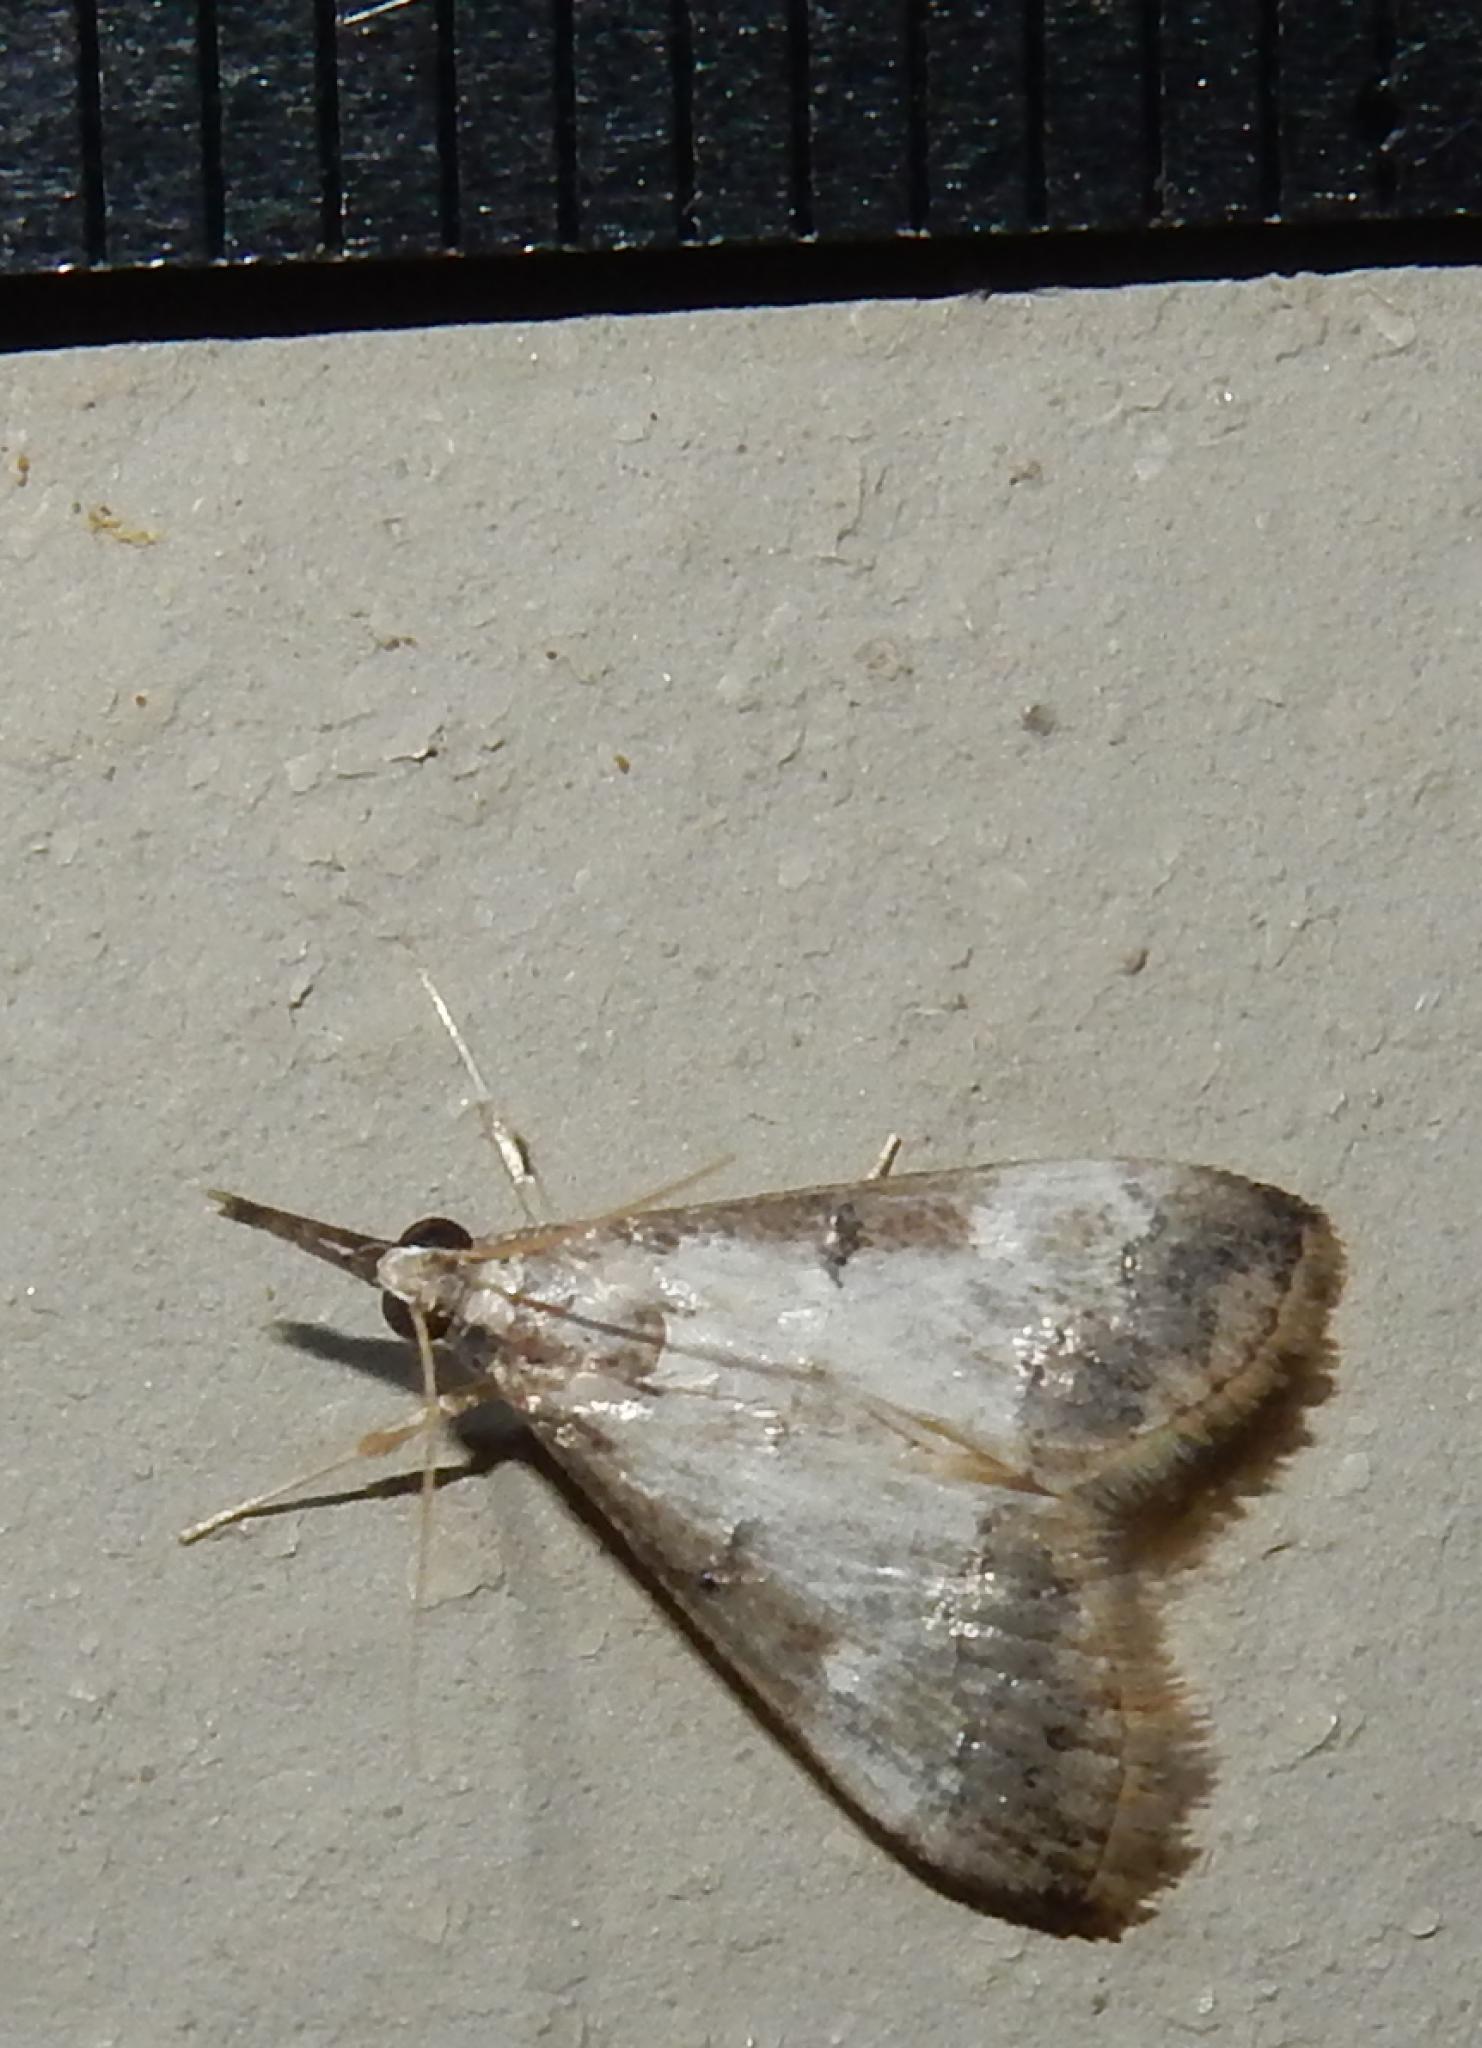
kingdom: Animalia
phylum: Arthropoda
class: Insecta
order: Lepidoptera
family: Crambidae
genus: Autocharis
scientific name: Autocharis sinualis
